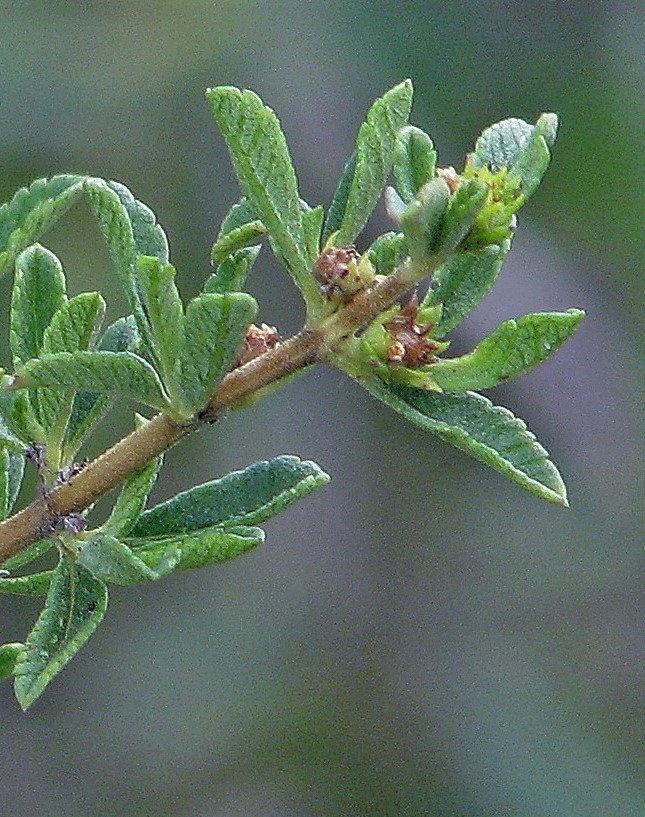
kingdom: Plantae
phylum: Tracheophyta
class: Magnoliopsida
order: Lamiales
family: Verbenaceae
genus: Lippia
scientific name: Lippia turbinata
